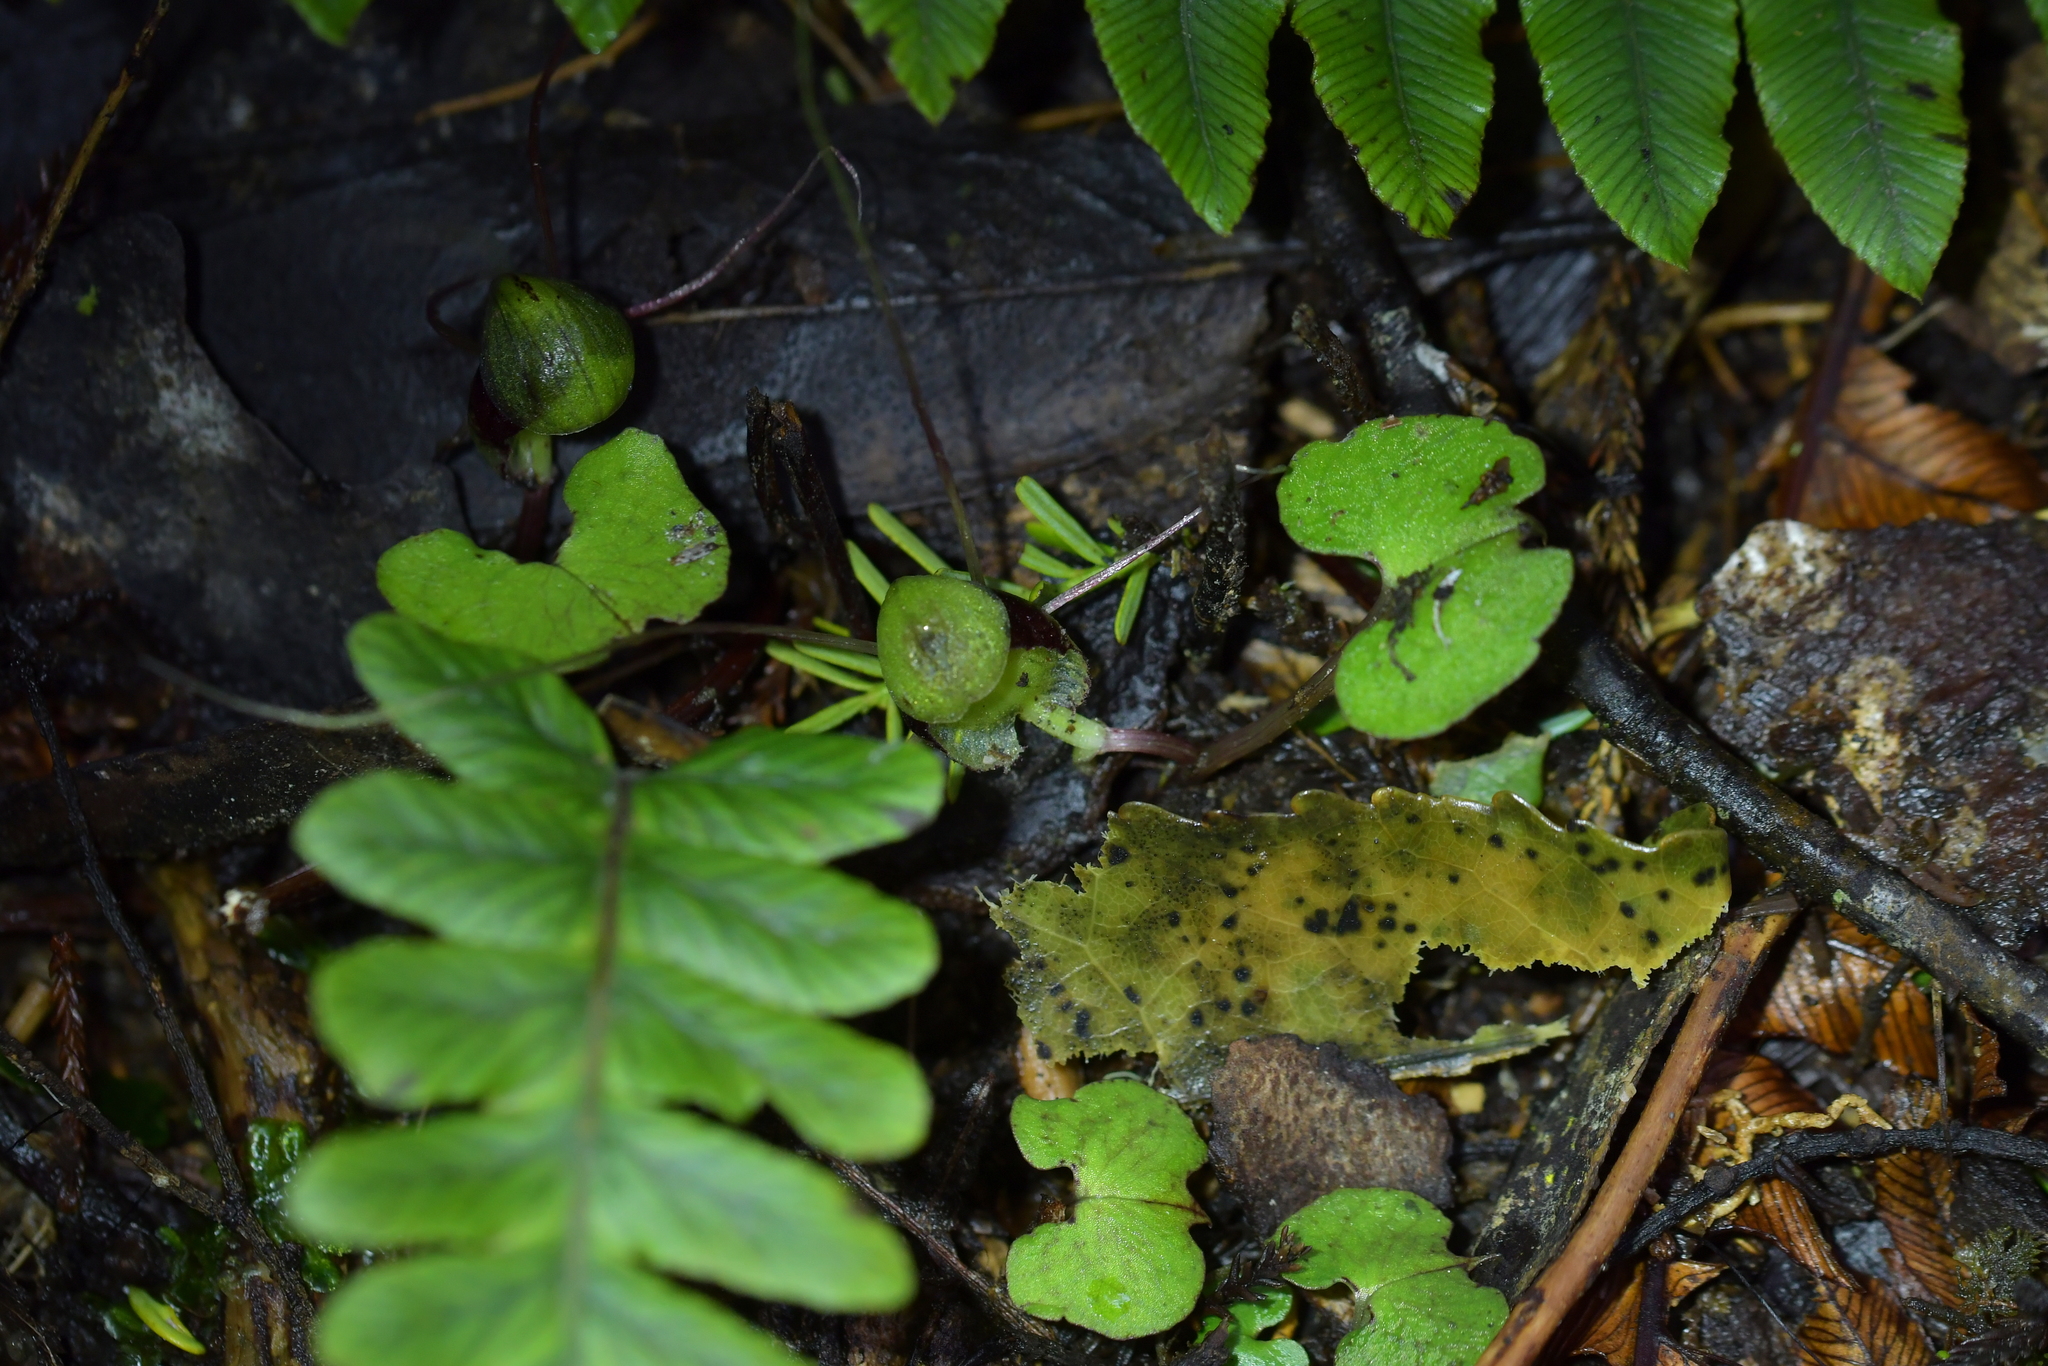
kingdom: Plantae
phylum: Tracheophyta
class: Liliopsida
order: Asparagales
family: Orchidaceae
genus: Corybas
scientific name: Corybas vitreus
